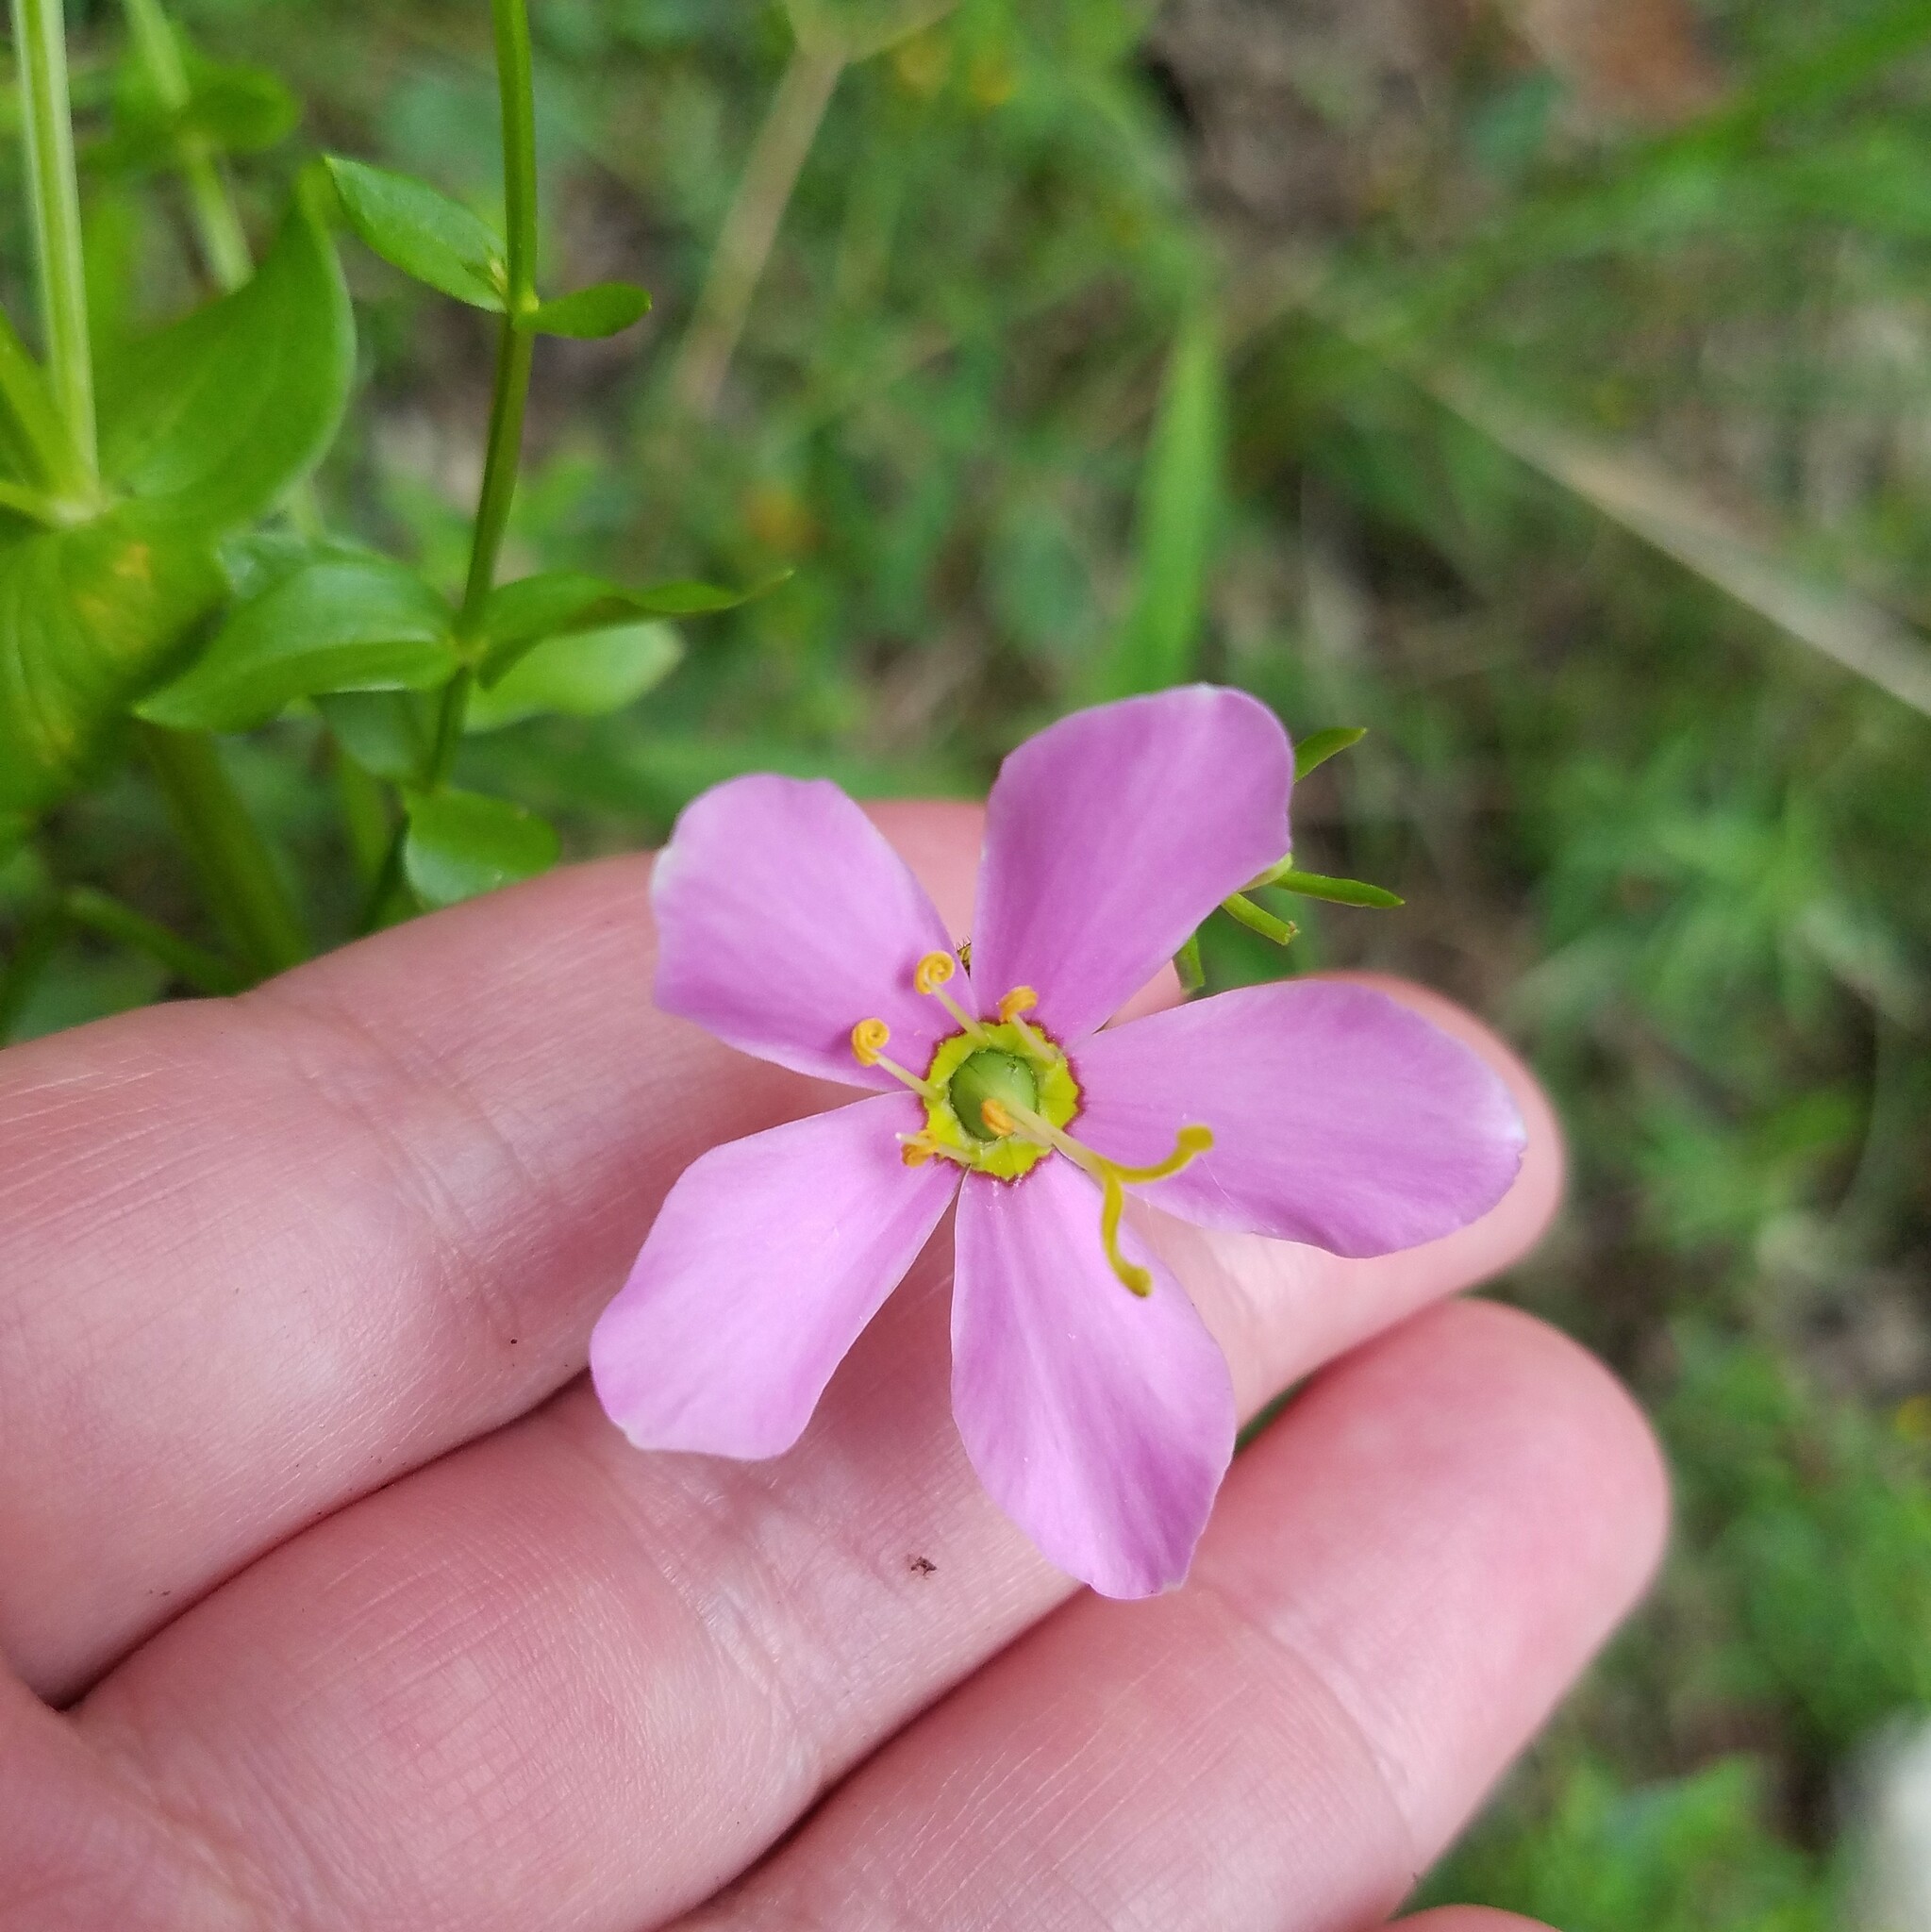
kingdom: Plantae
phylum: Tracheophyta
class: Magnoliopsida
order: Gentianales
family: Gentianaceae
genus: Sabatia
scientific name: Sabatia angularis
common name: Rose-pink
